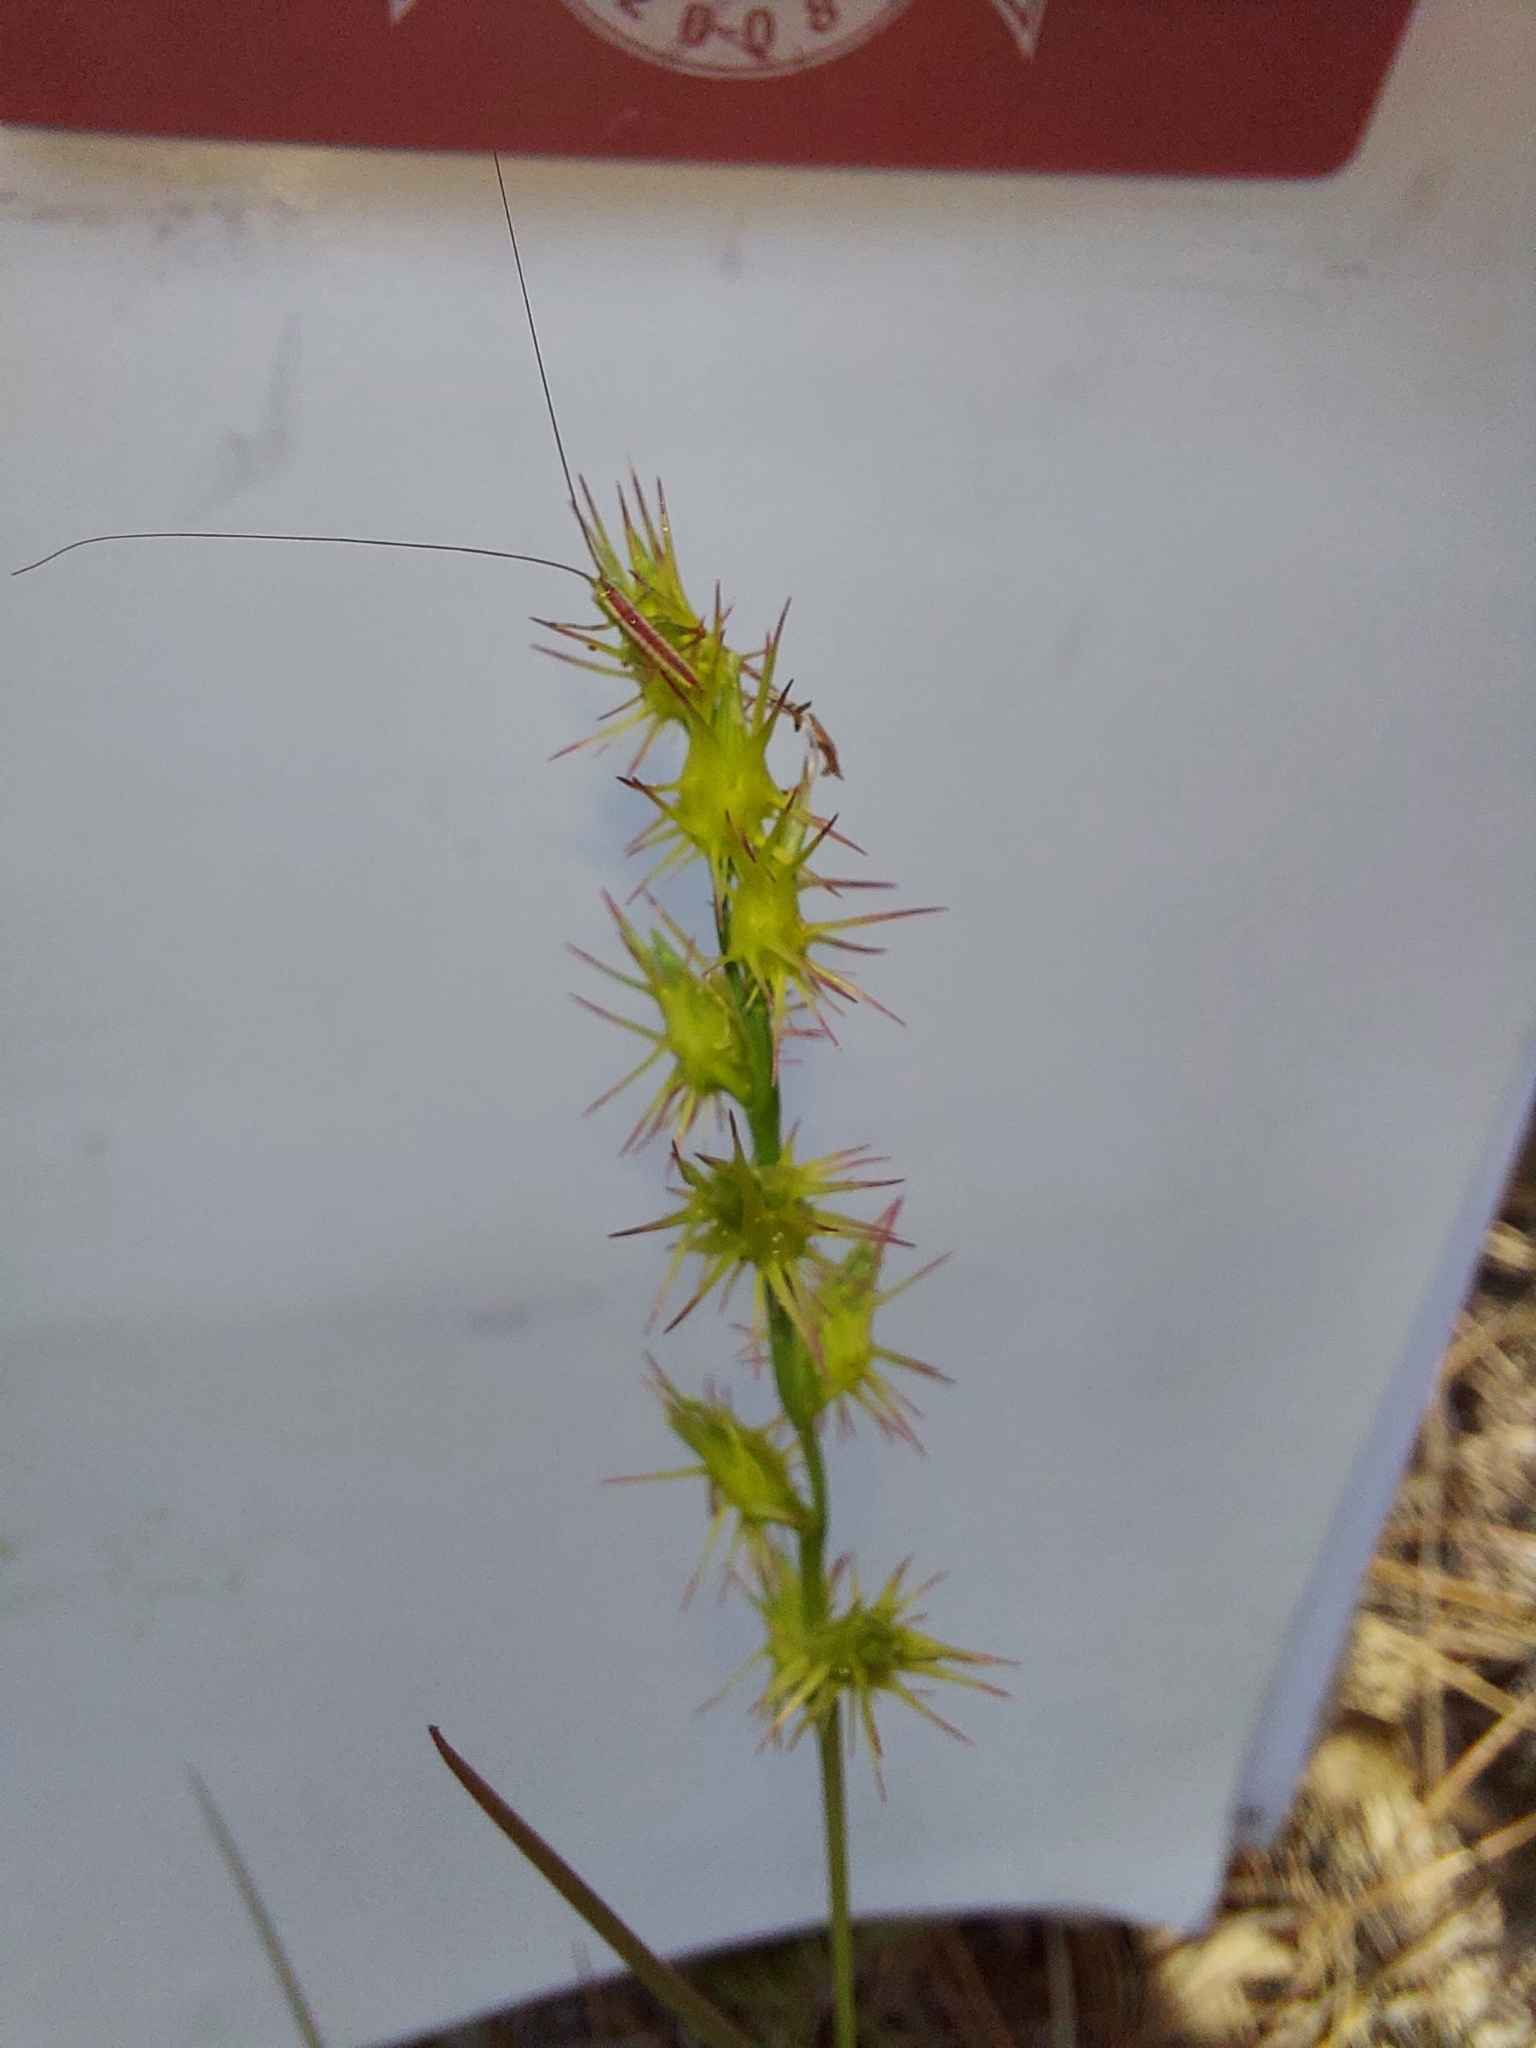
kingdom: Animalia
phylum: Arthropoda
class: Insecta
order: Orthoptera
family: Tettigoniidae
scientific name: Tettigoniidae
